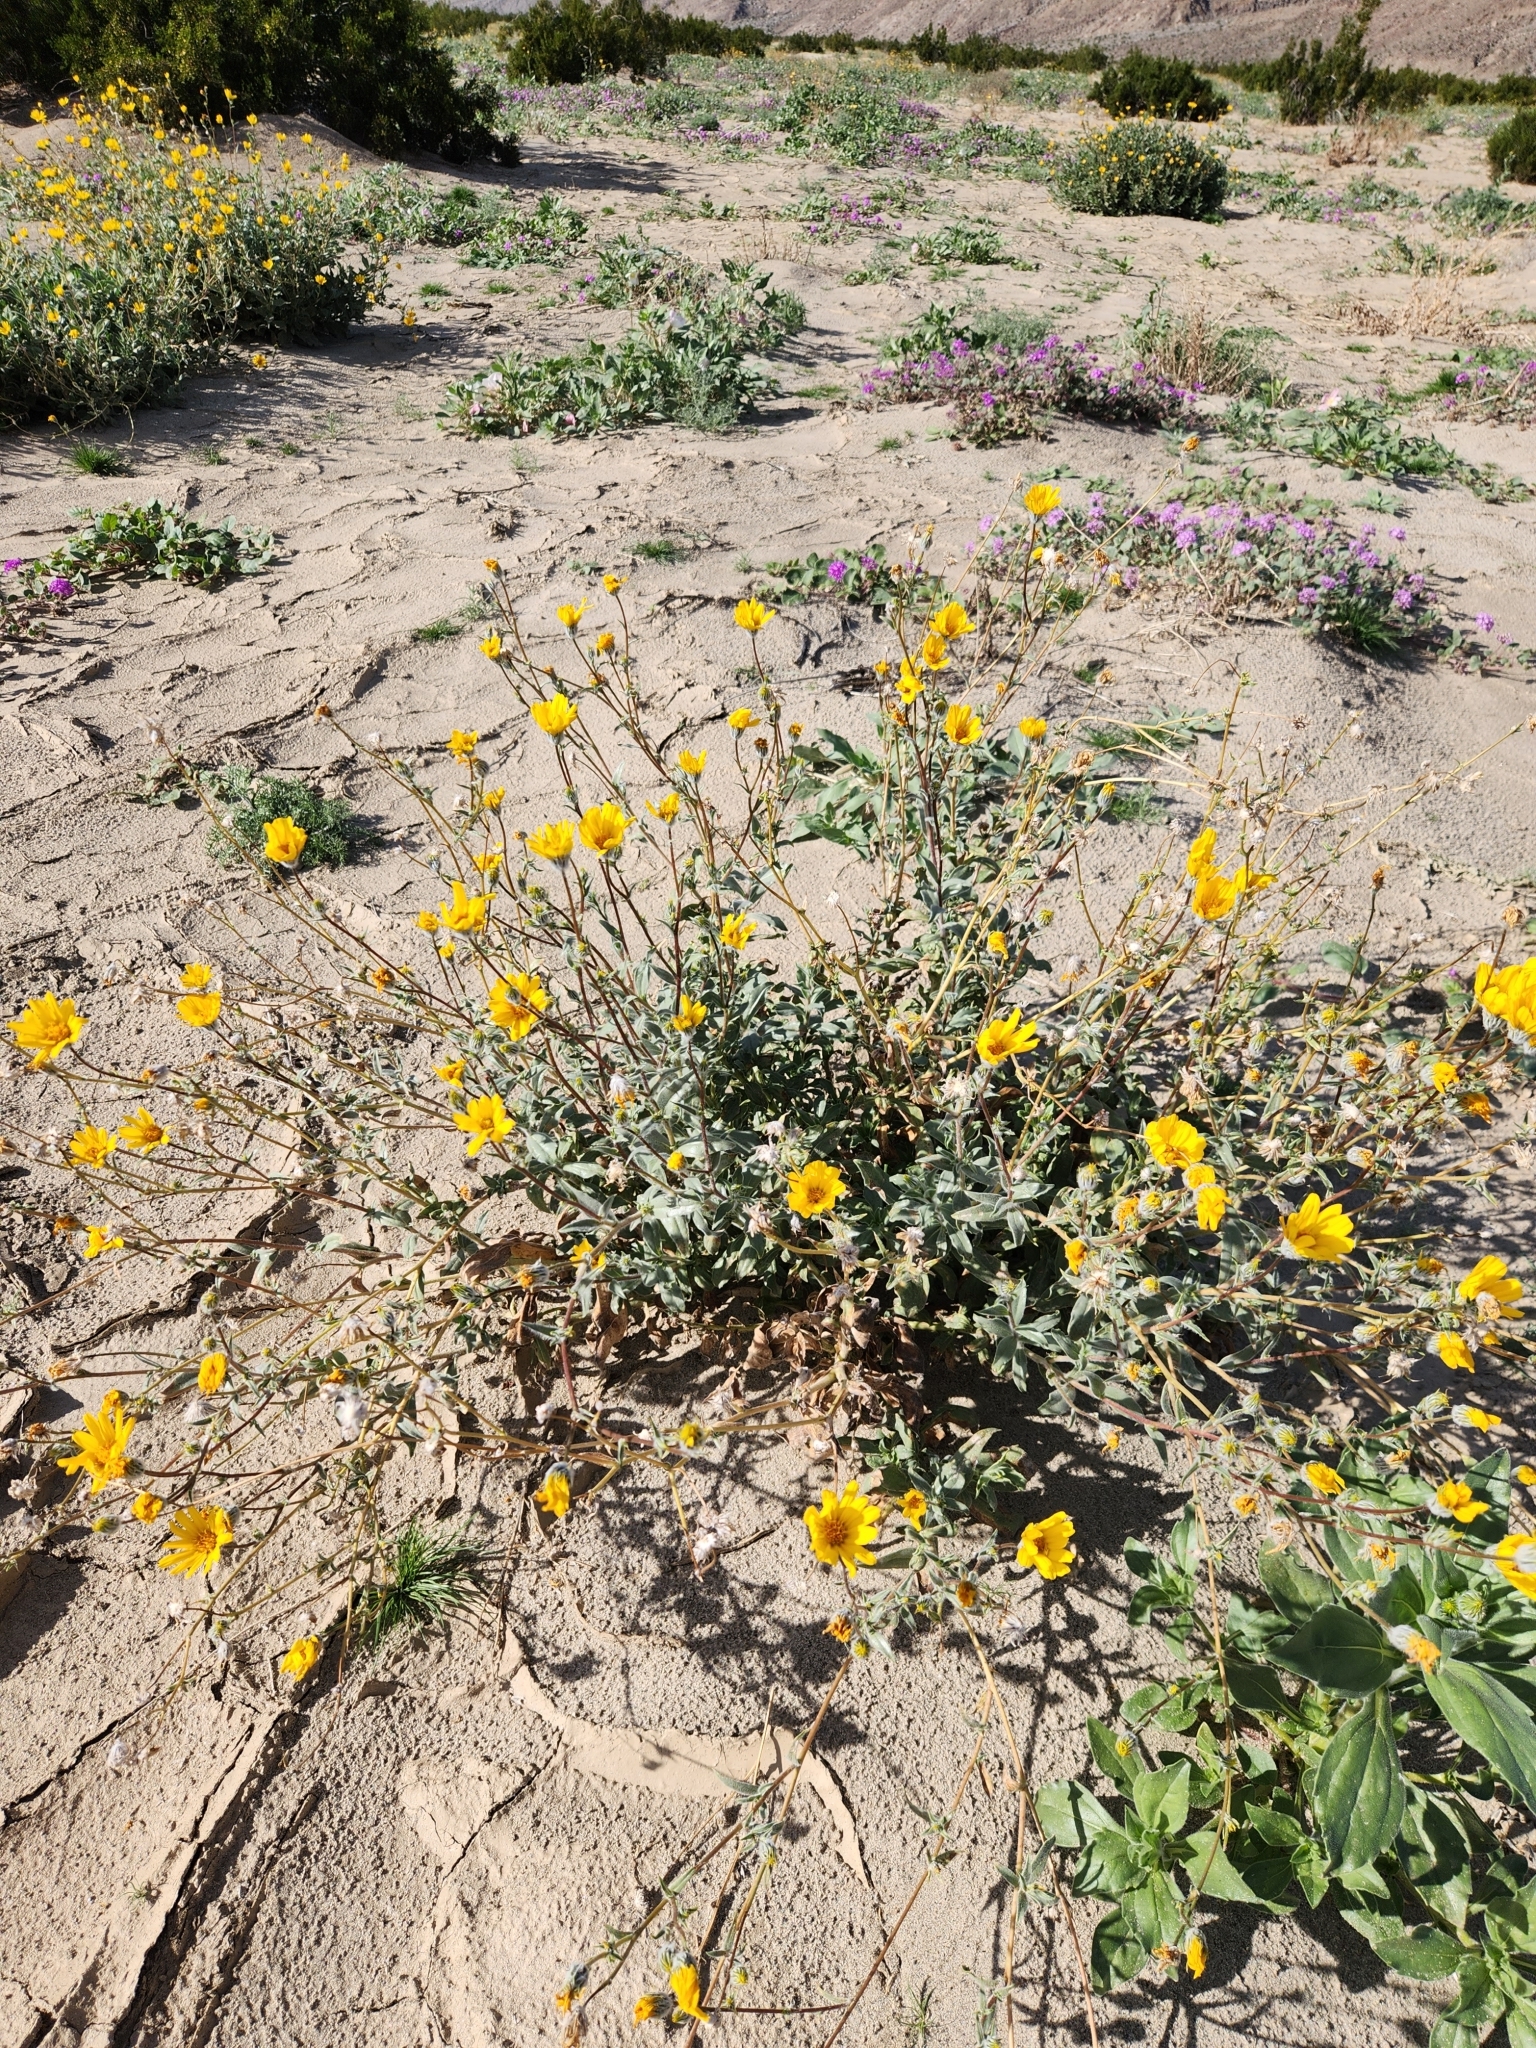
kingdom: Plantae
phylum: Tracheophyta
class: Magnoliopsida
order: Asterales
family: Asteraceae
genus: Geraea
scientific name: Geraea canescens
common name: Desert-gold
